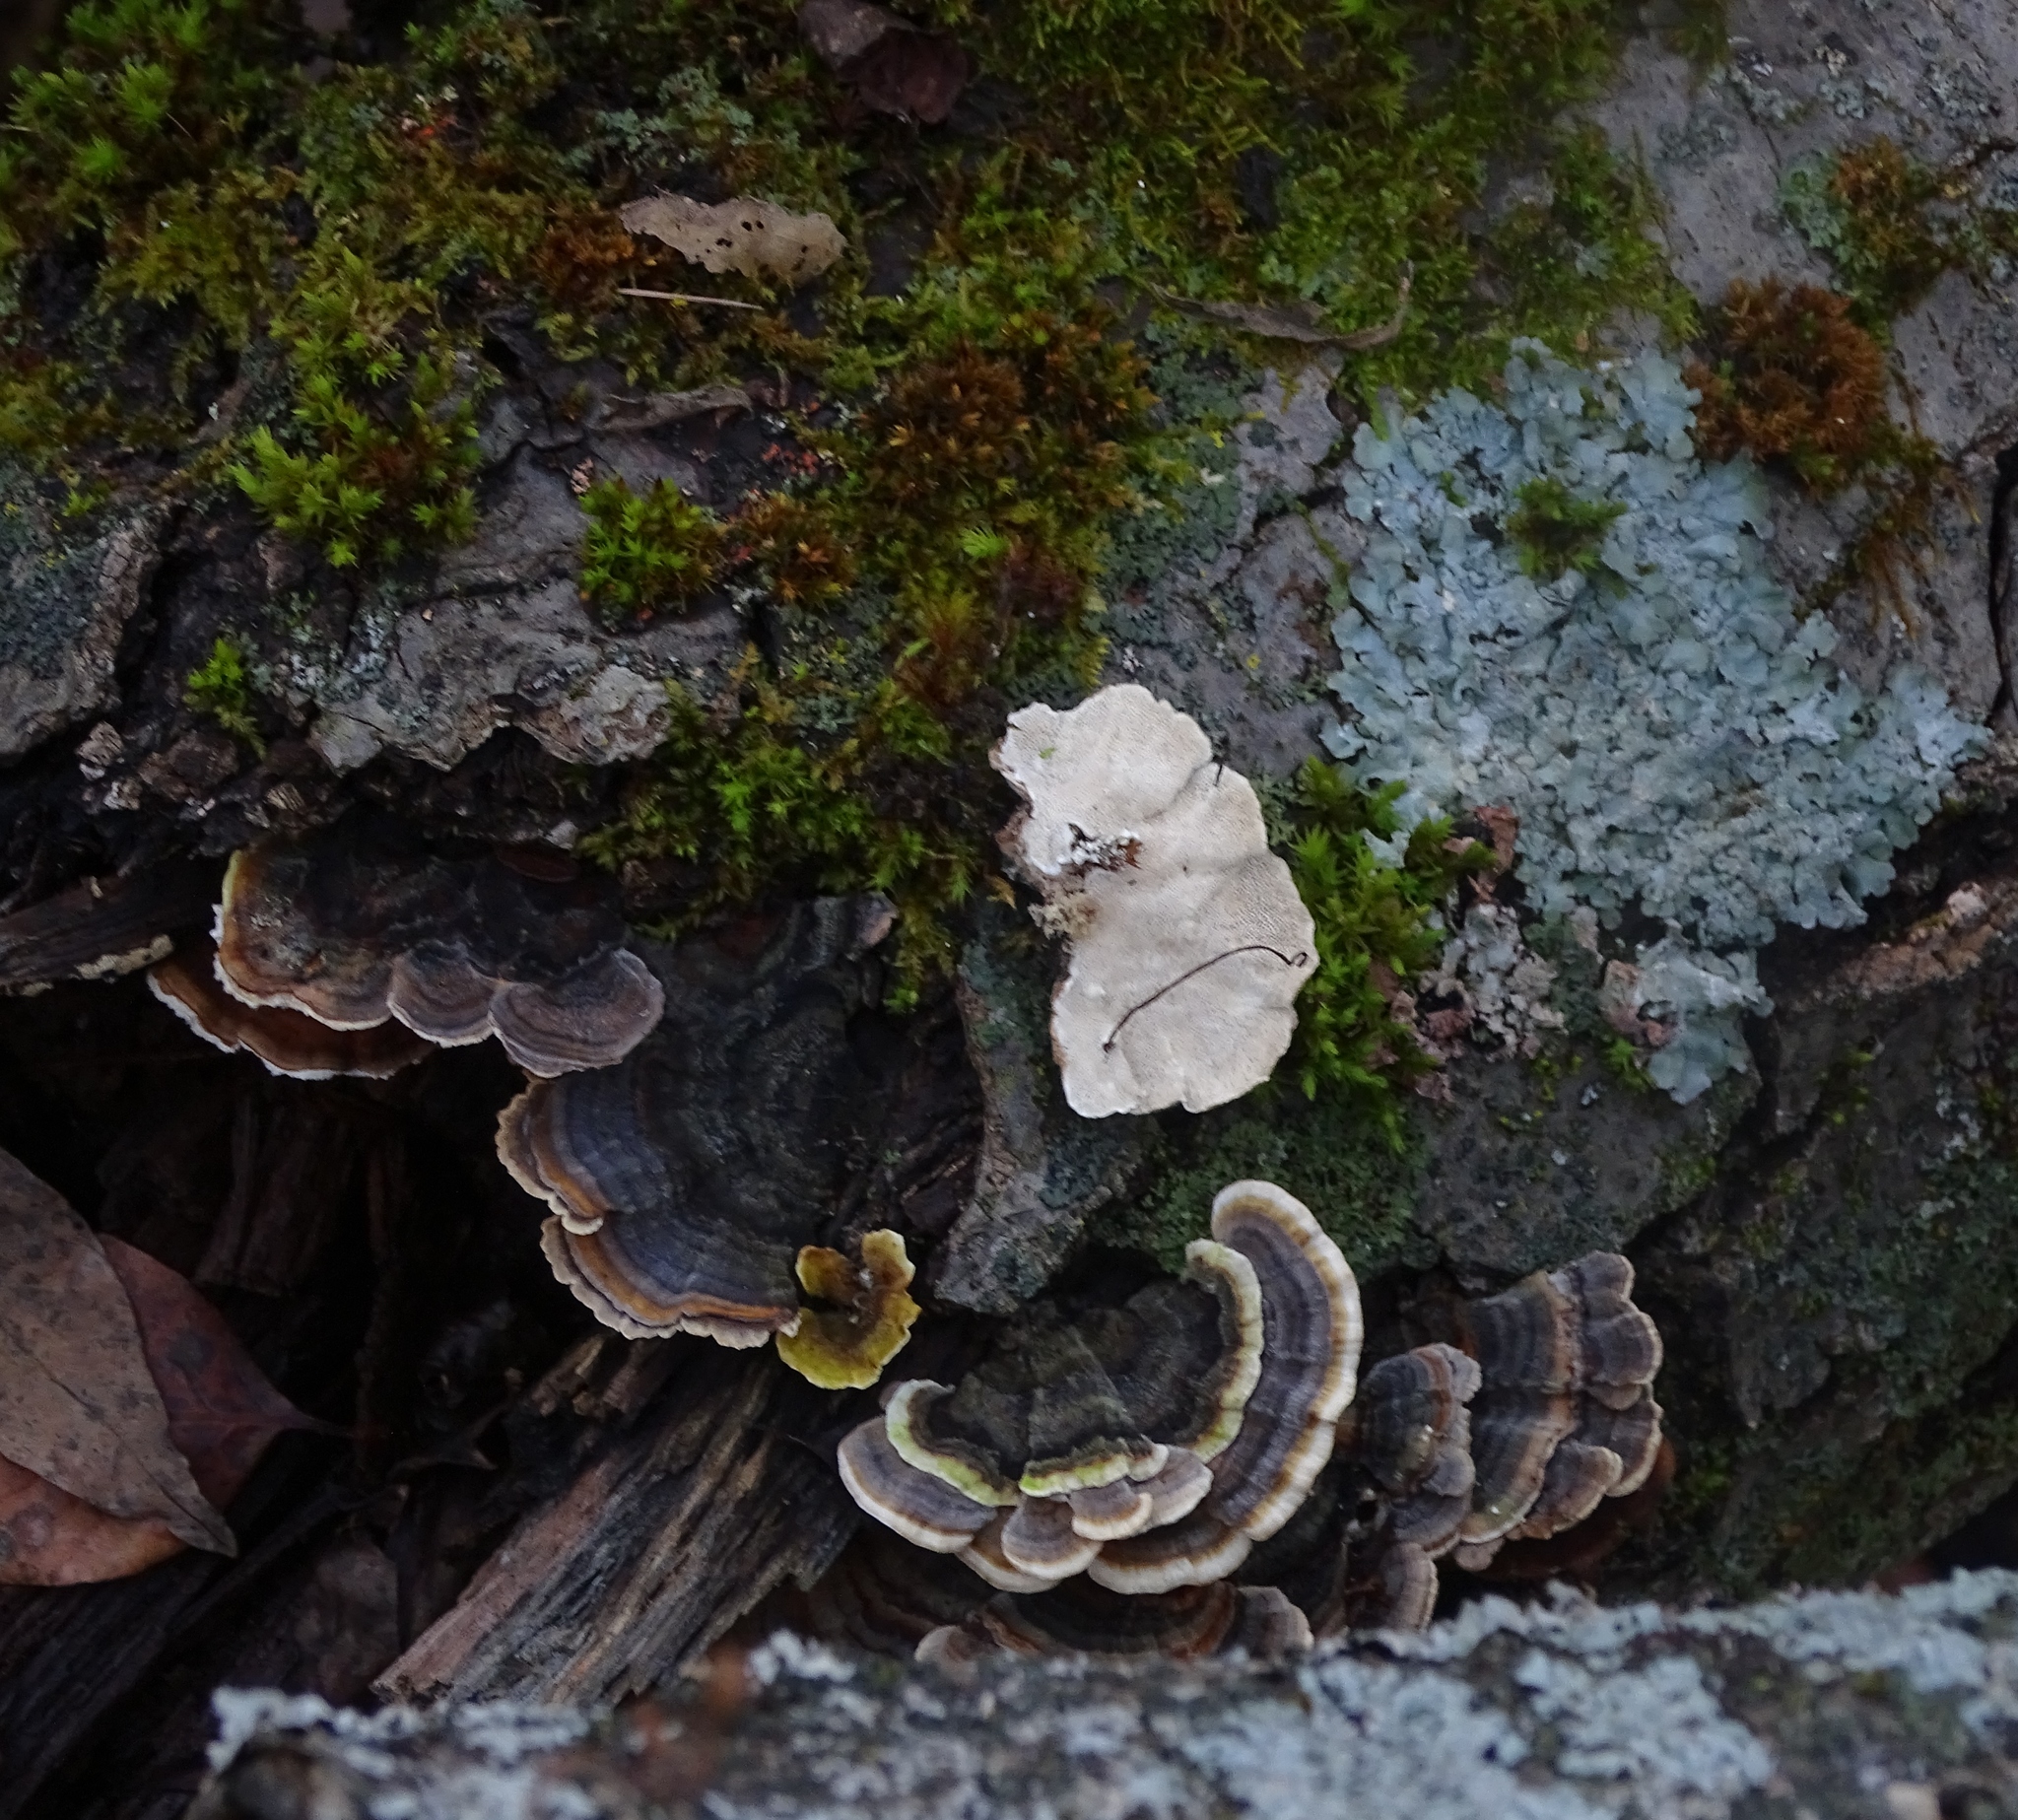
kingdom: Fungi
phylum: Basidiomycota
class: Agaricomycetes
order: Polyporales
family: Polyporaceae
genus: Trametes
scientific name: Trametes versicolor
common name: Turkeytail
